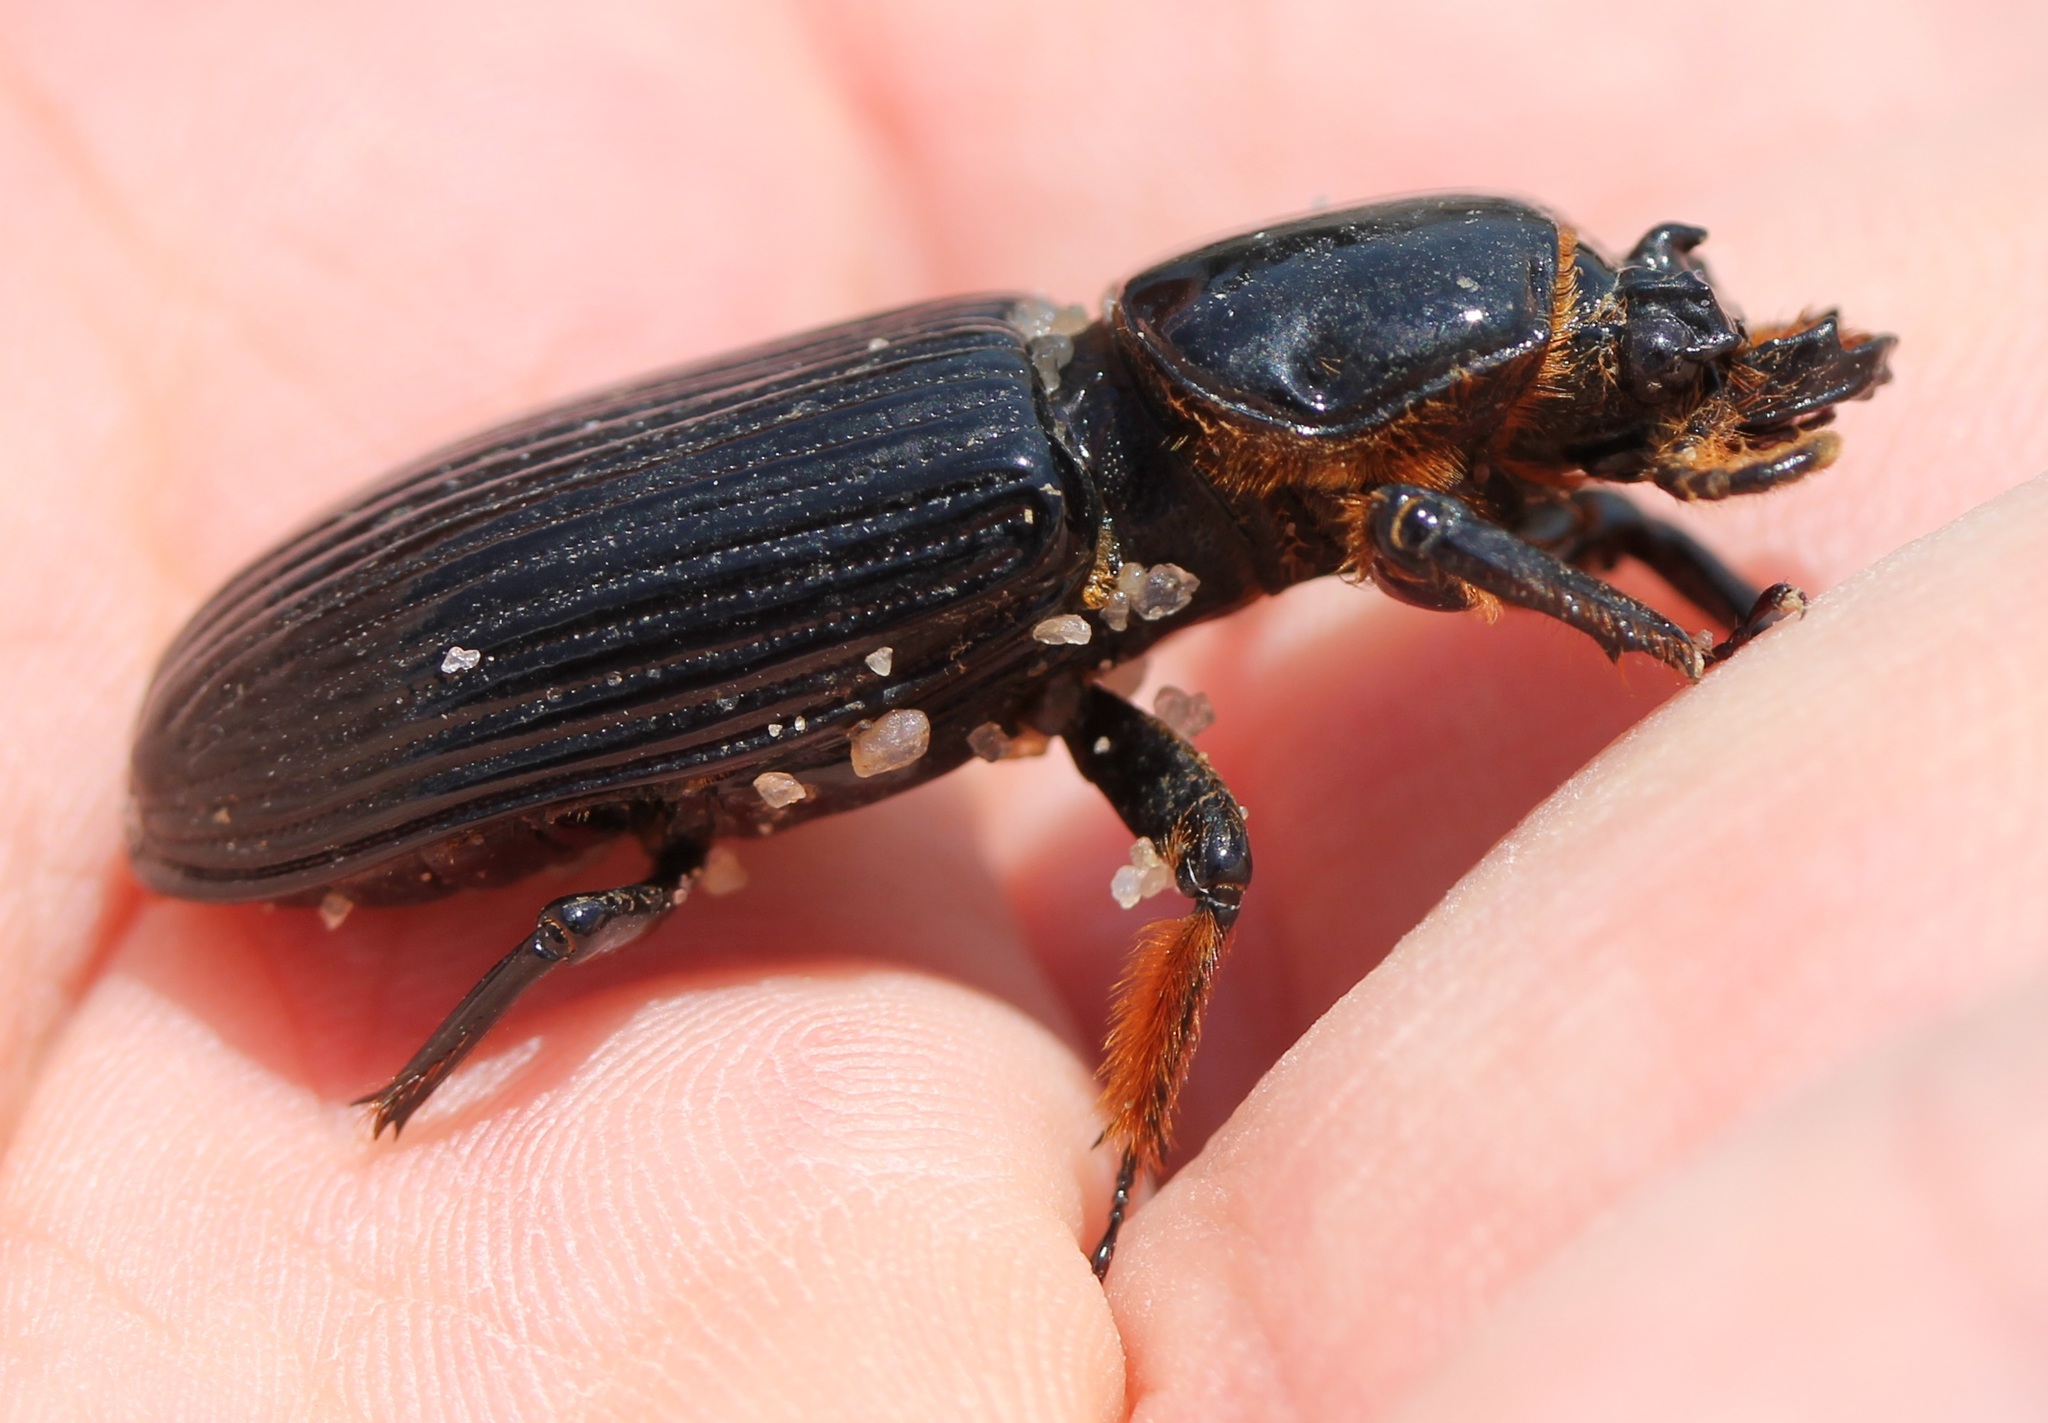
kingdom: Animalia
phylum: Arthropoda
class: Insecta
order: Coleoptera
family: Passalidae
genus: Odontotaenius
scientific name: Odontotaenius disjunctus
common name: Patent leather beetle
